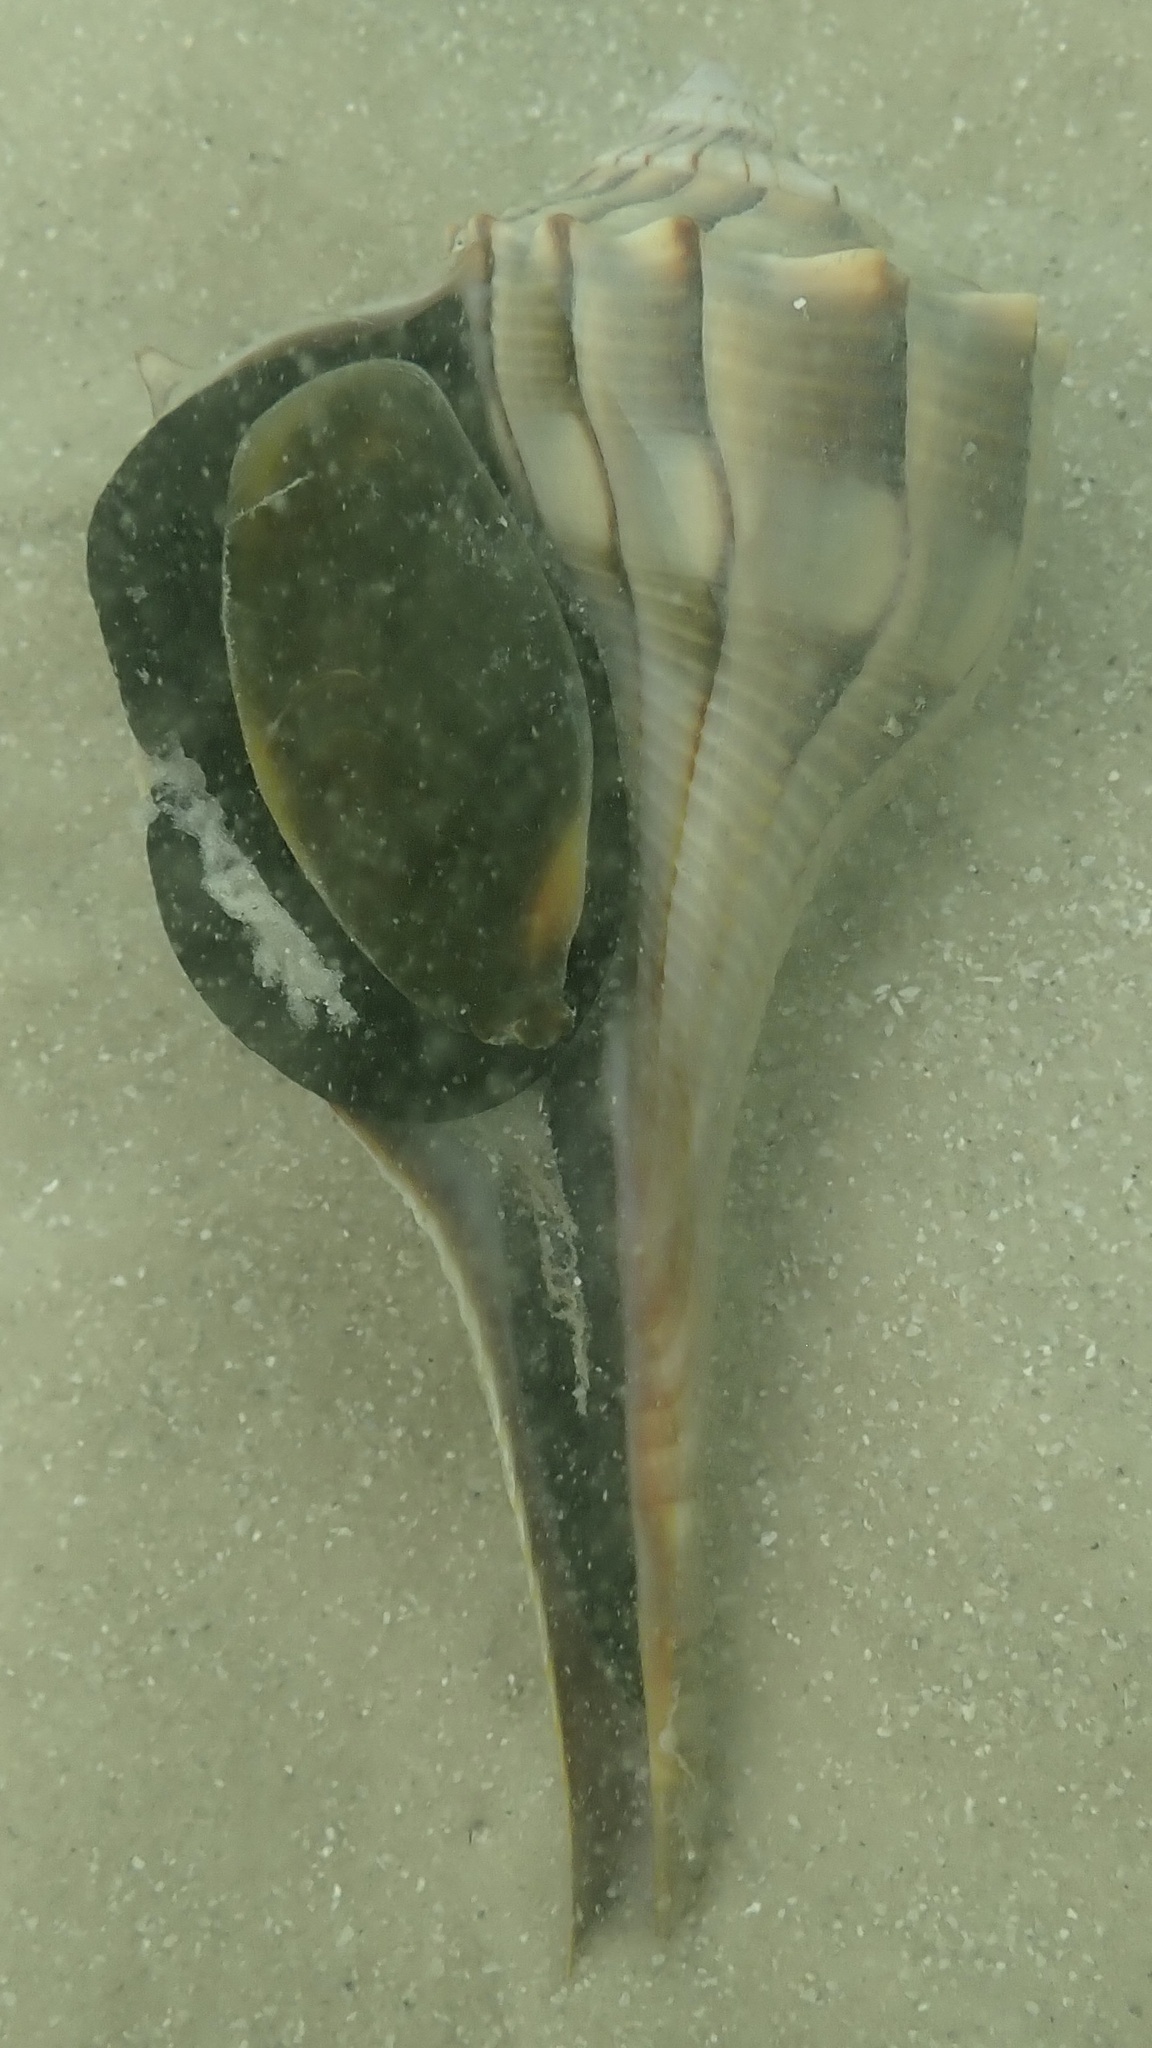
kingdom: Animalia
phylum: Mollusca
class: Gastropoda
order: Neogastropoda
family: Busyconidae
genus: Sinistrofulgur
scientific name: Sinistrofulgur sinistrum
